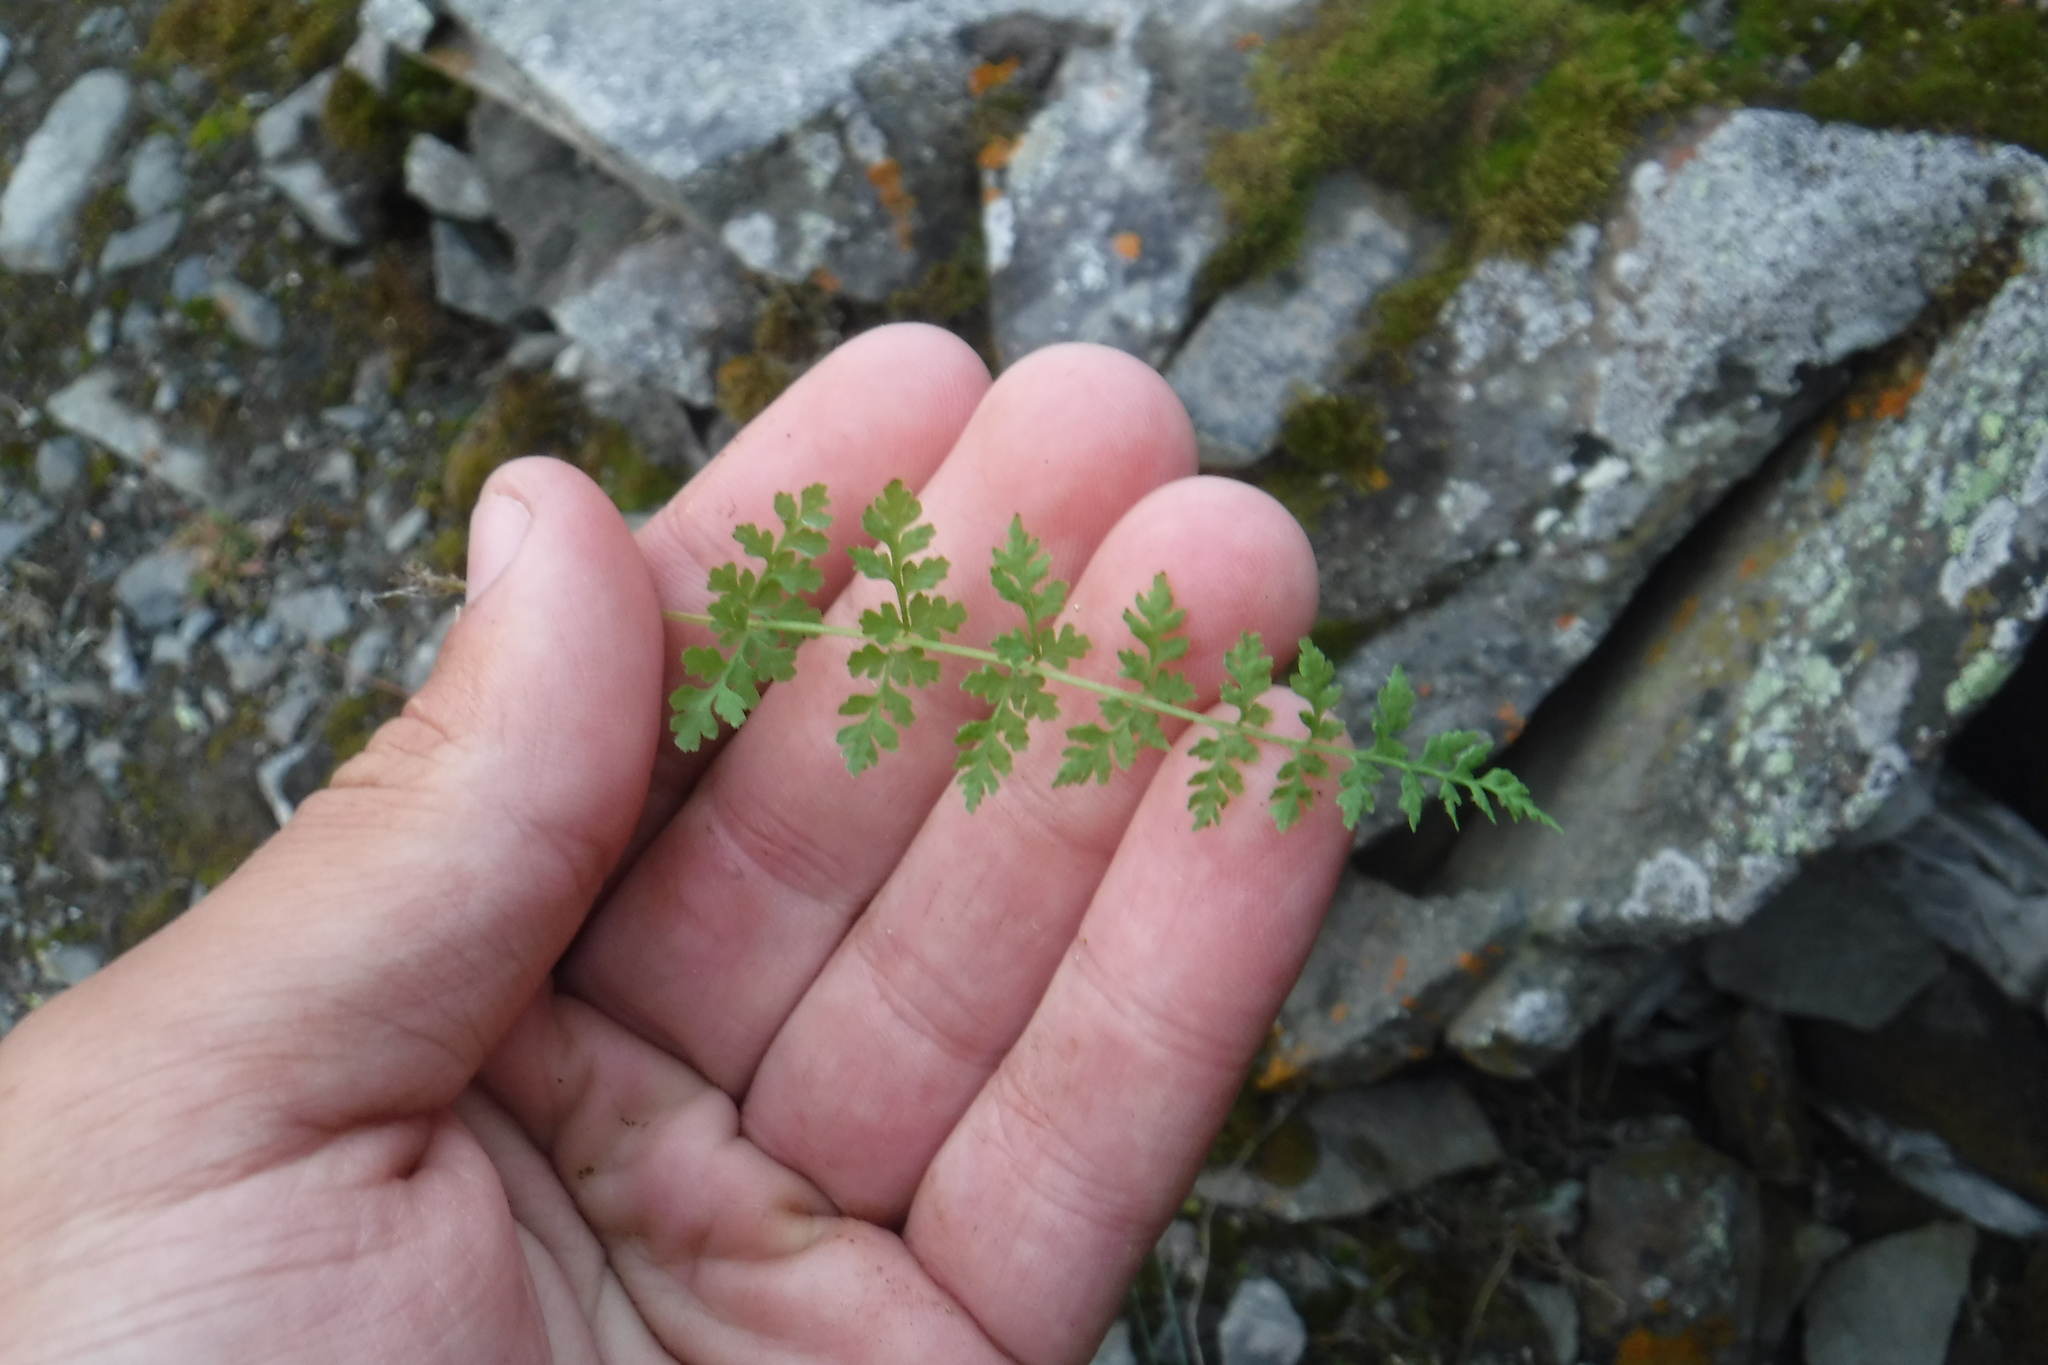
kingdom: Plantae
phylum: Tracheophyta
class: Polypodiopsida
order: Polypodiales
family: Cystopteridaceae
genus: Cystopteris
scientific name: Cystopteris fragilis
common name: Brittle bladder fern
